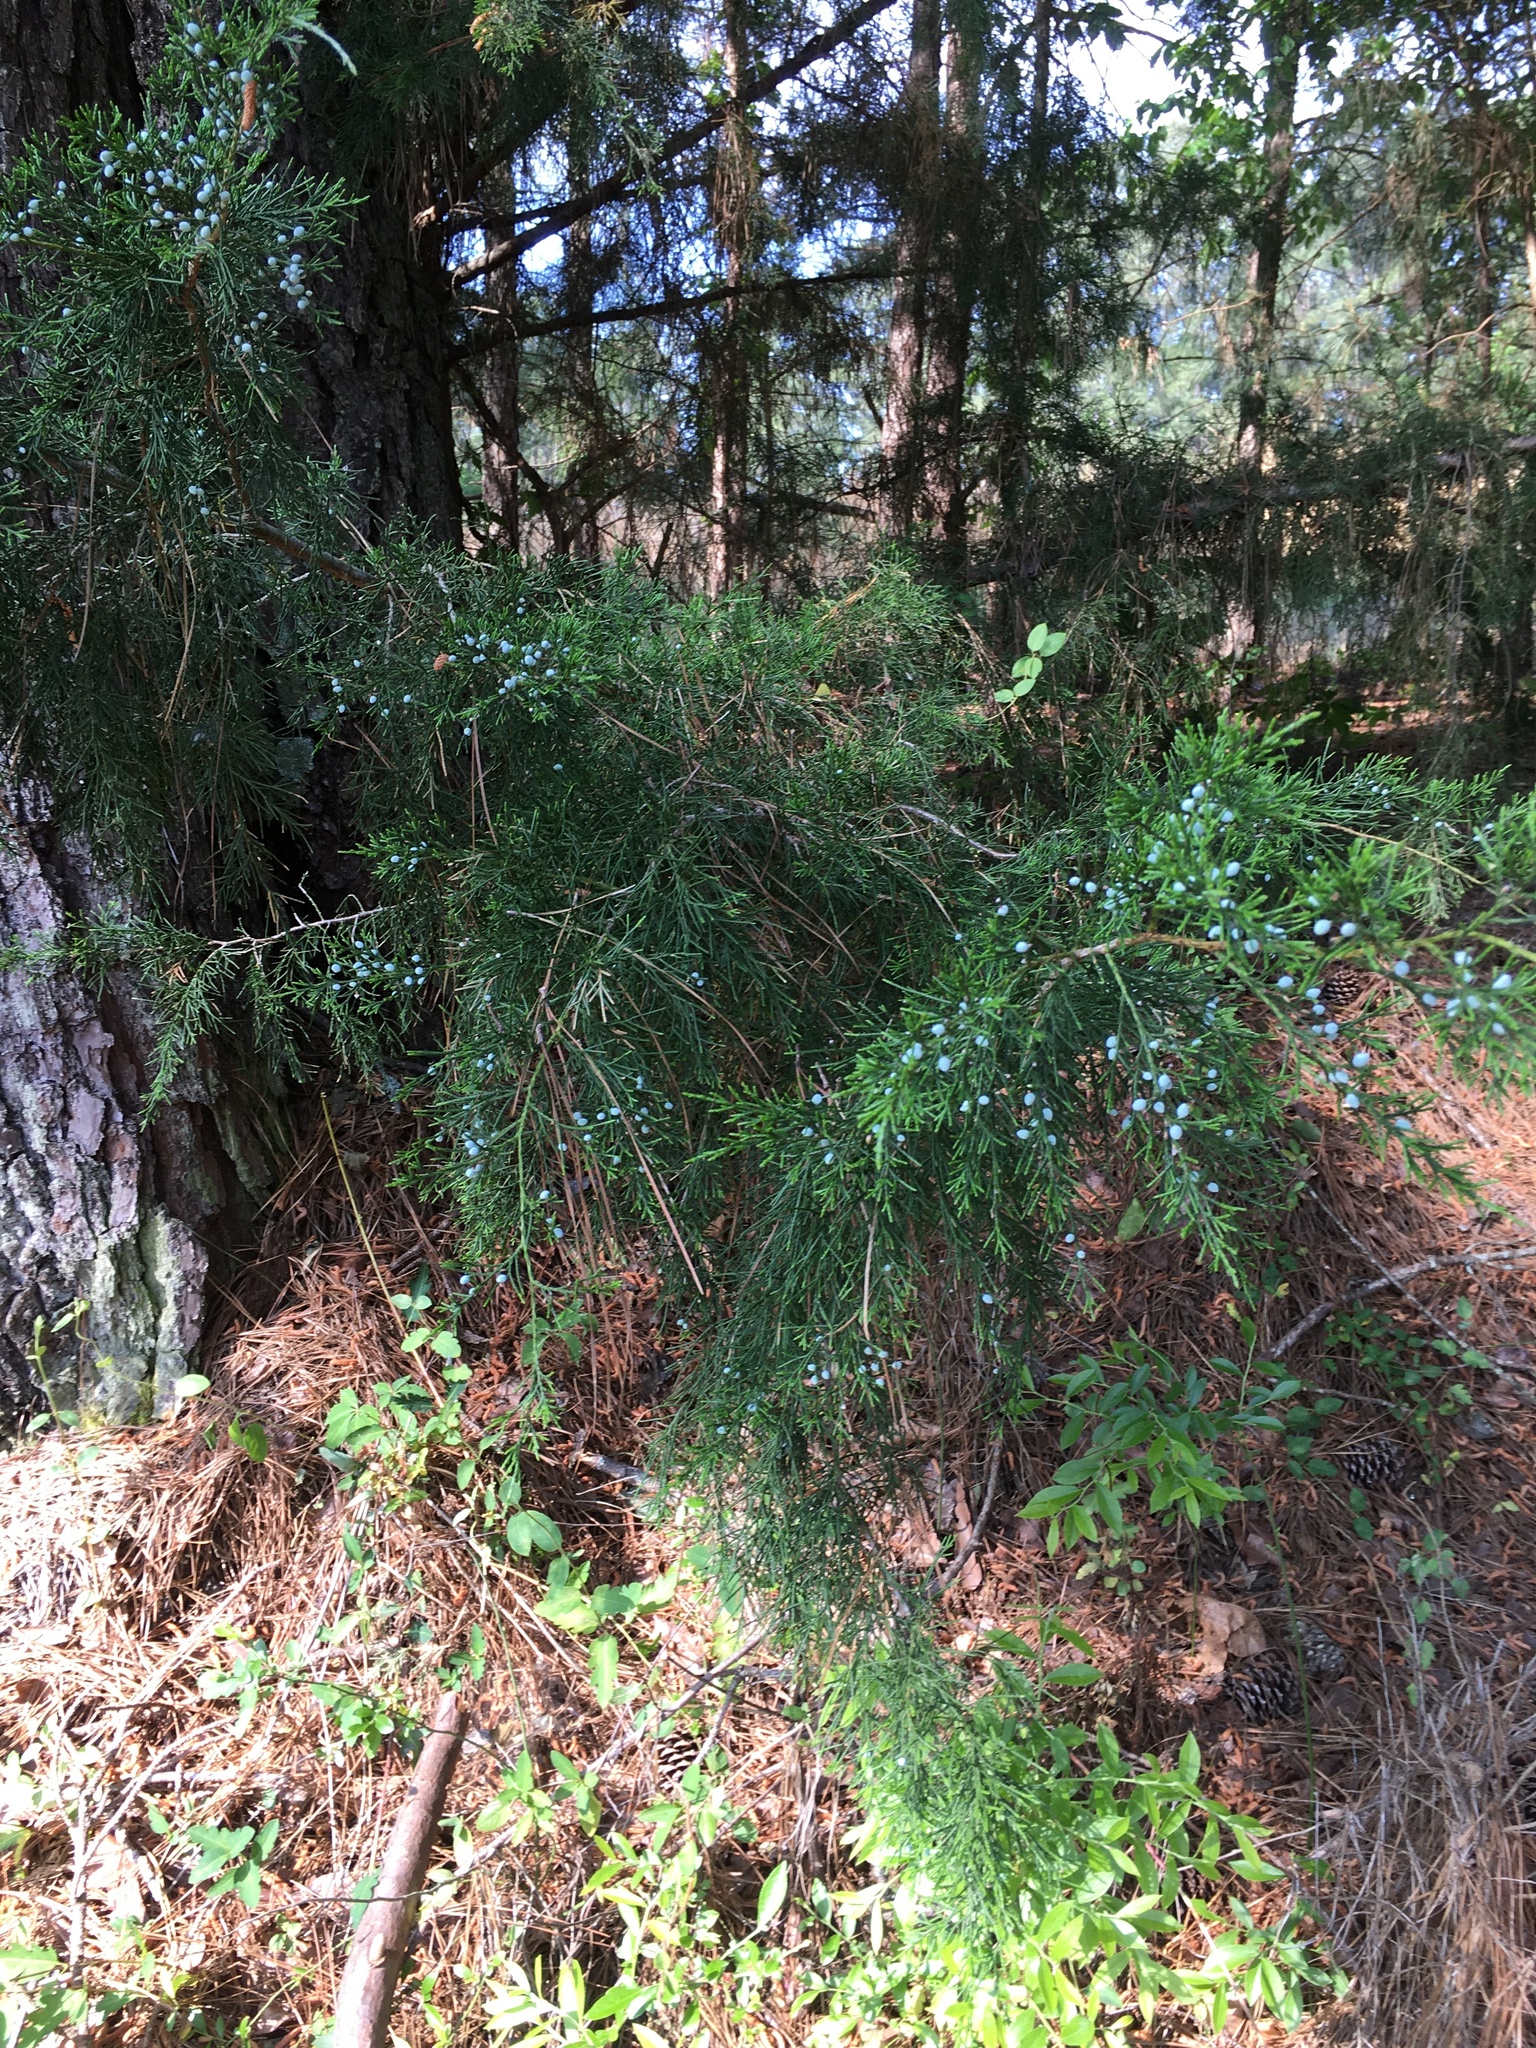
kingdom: Plantae
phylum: Tracheophyta
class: Pinopsida
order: Pinales
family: Cupressaceae
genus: Juniperus
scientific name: Juniperus virginiana
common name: Red juniper
